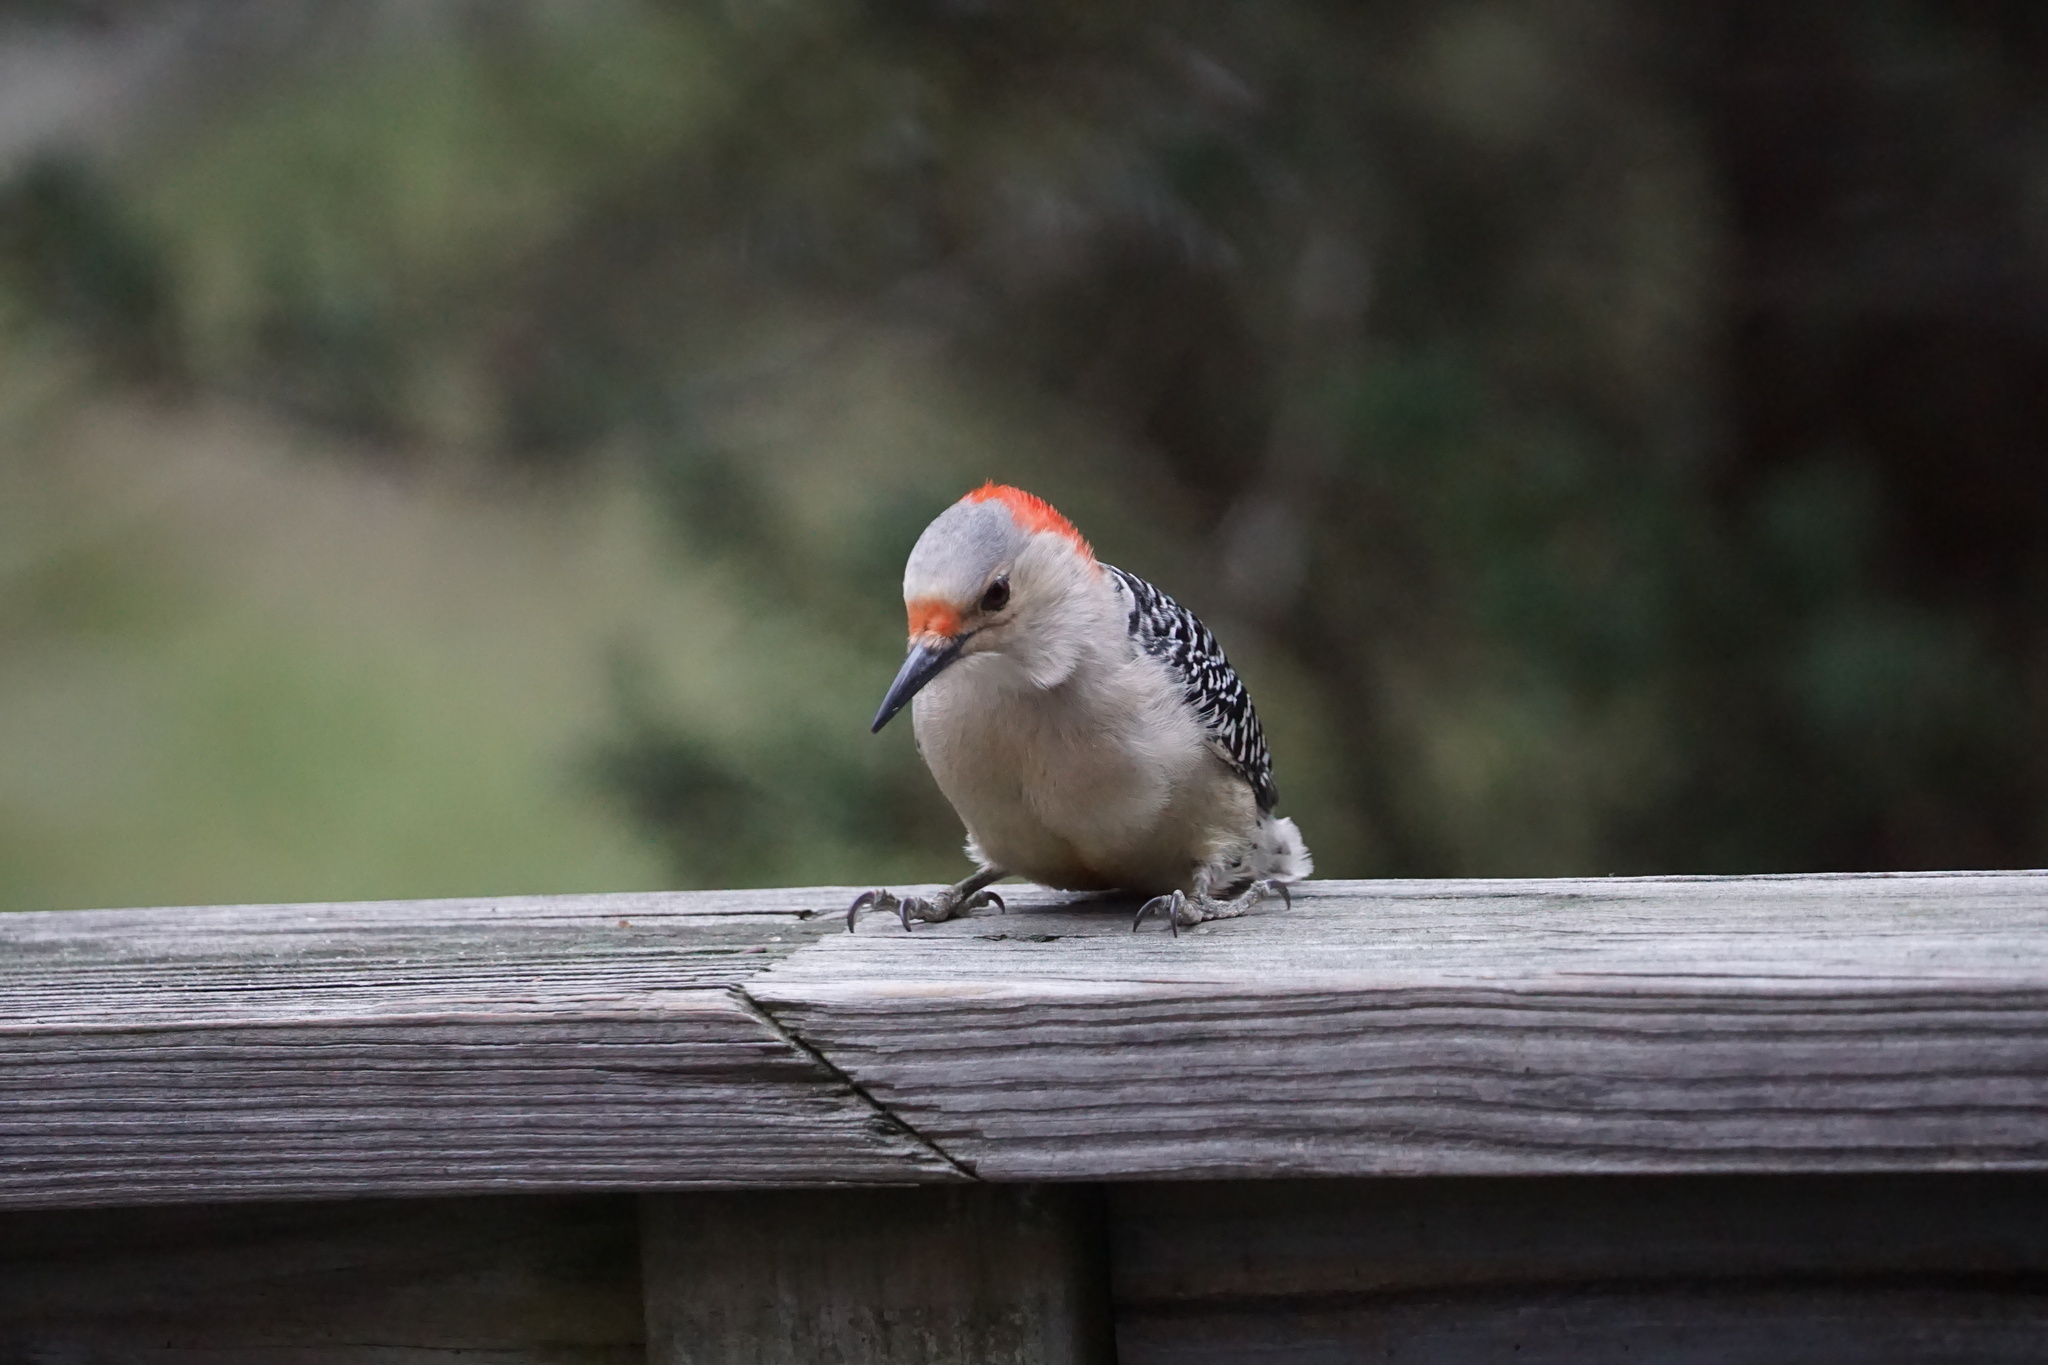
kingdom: Animalia
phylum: Chordata
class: Aves
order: Piciformes
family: Picidae
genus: Melanerpes
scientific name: Melanerpes carolinus
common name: Red-bellied woodpecker
